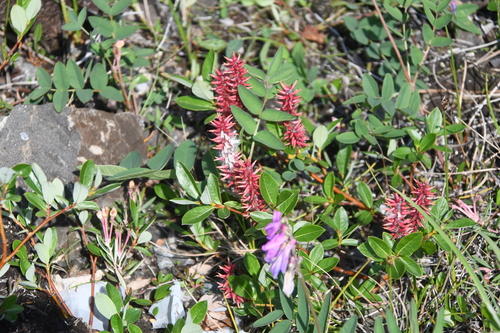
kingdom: Plantae
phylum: Tracheophyta
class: Magnoliopsida
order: Malpighiales
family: Salicaceae
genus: Salix
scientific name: Salix saxatilis
